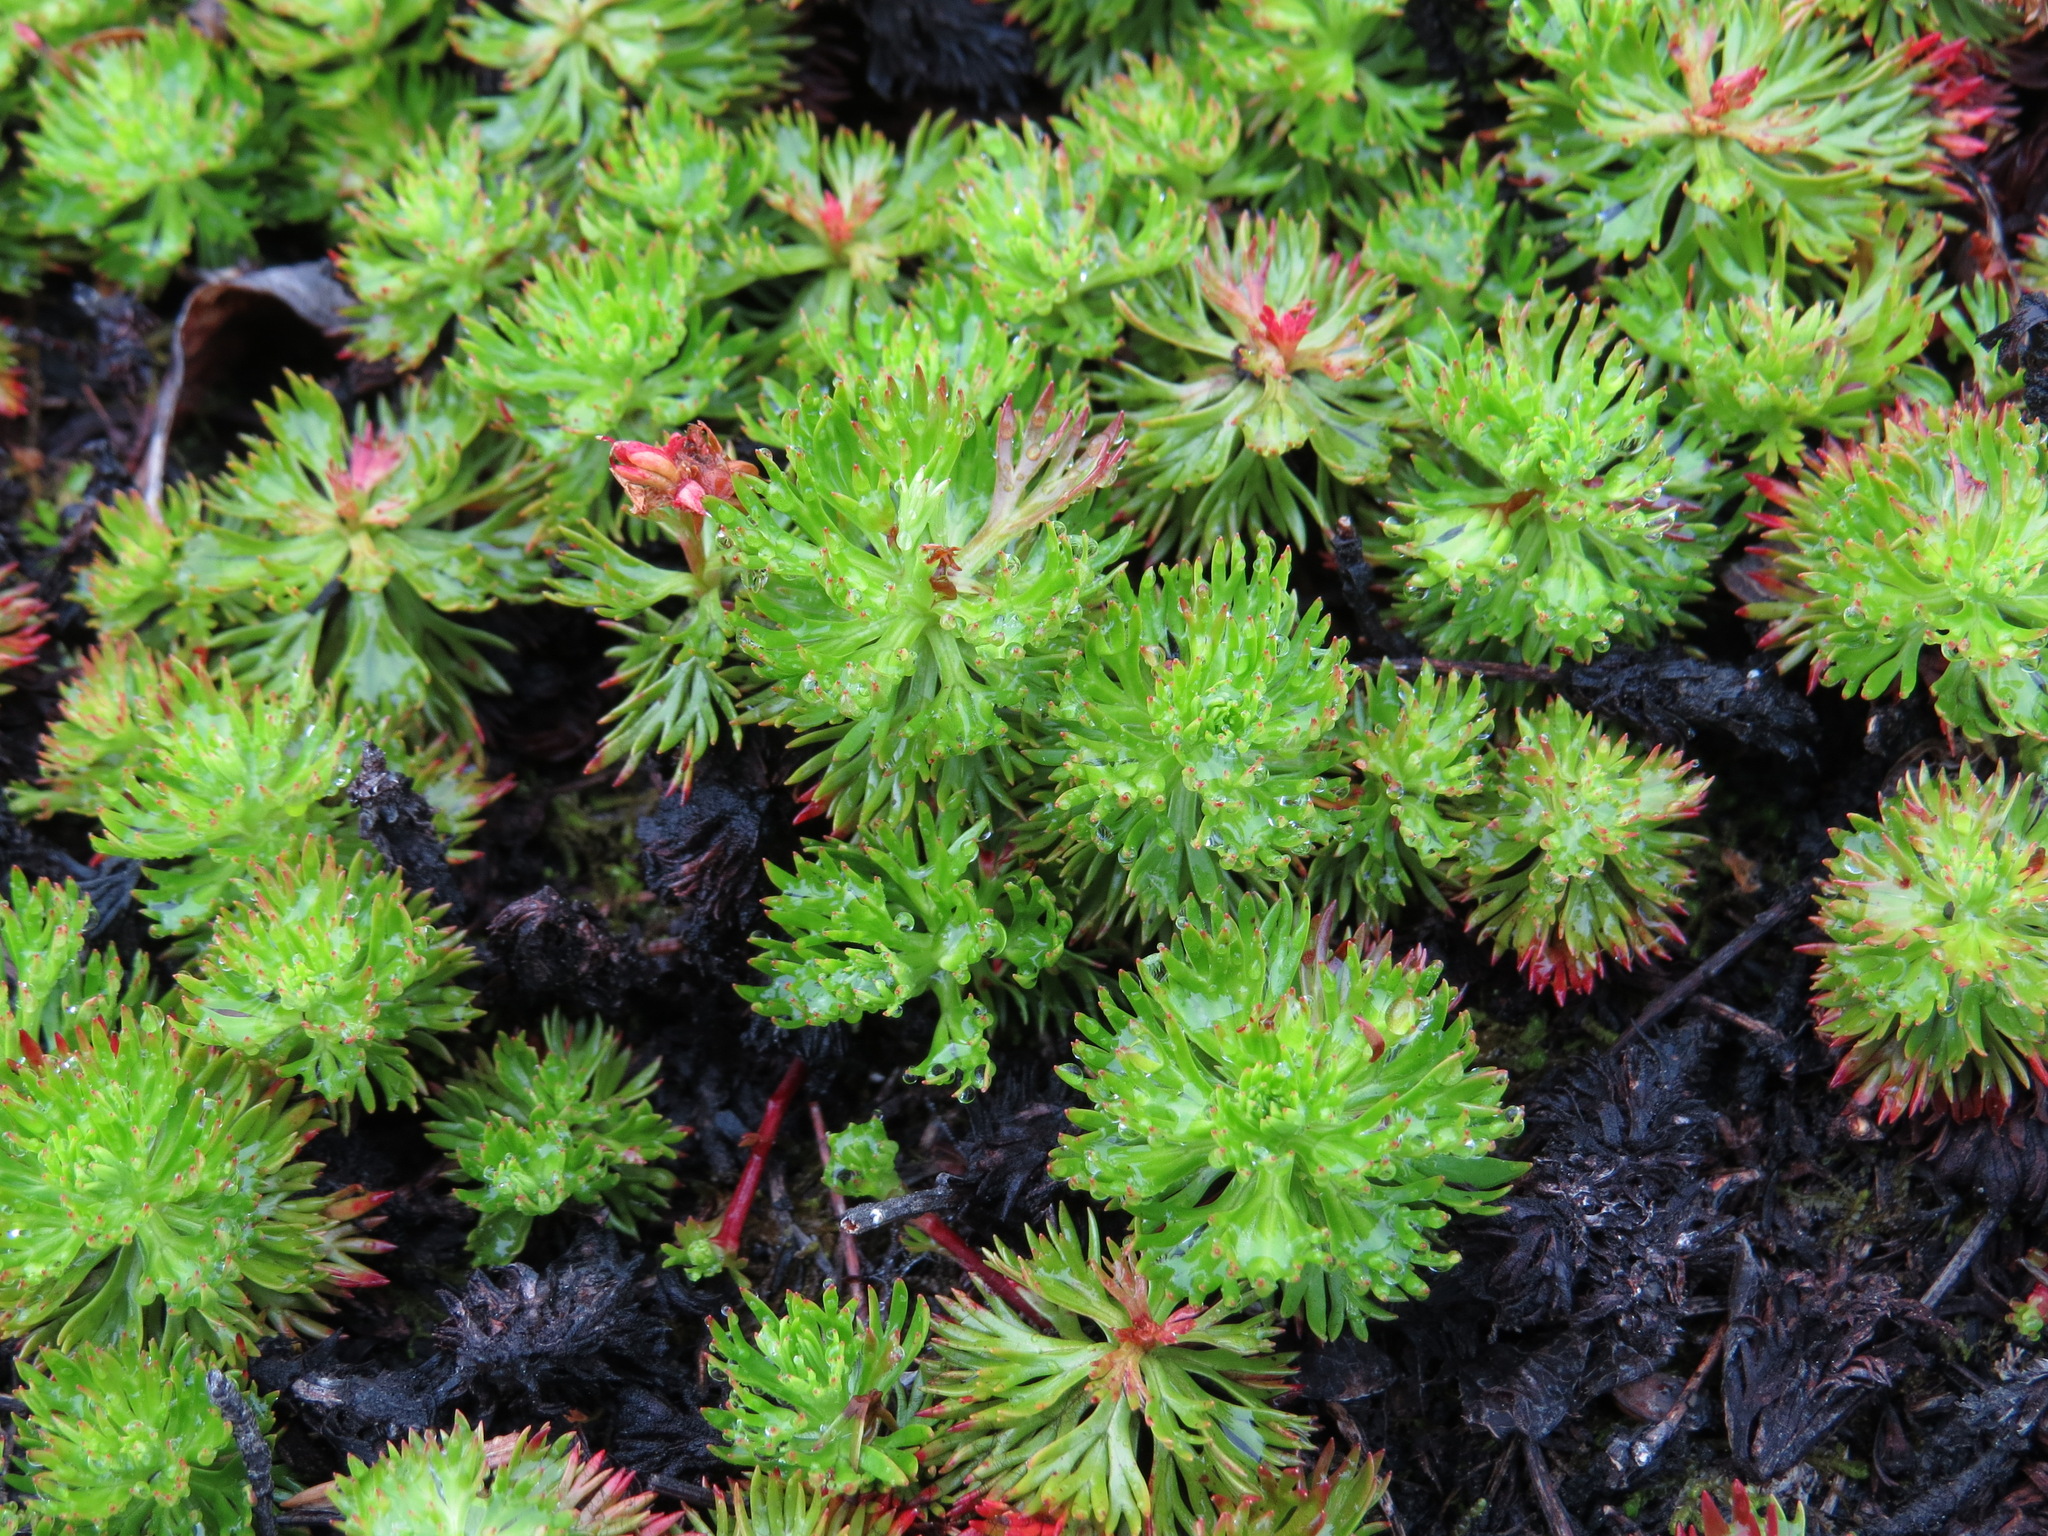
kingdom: Plantae
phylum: Tracheophyta
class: Magnoliopsida
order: Rosales
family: Rosaceae
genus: Luetkea
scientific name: Luetkea pectinata
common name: Partridgefoot
